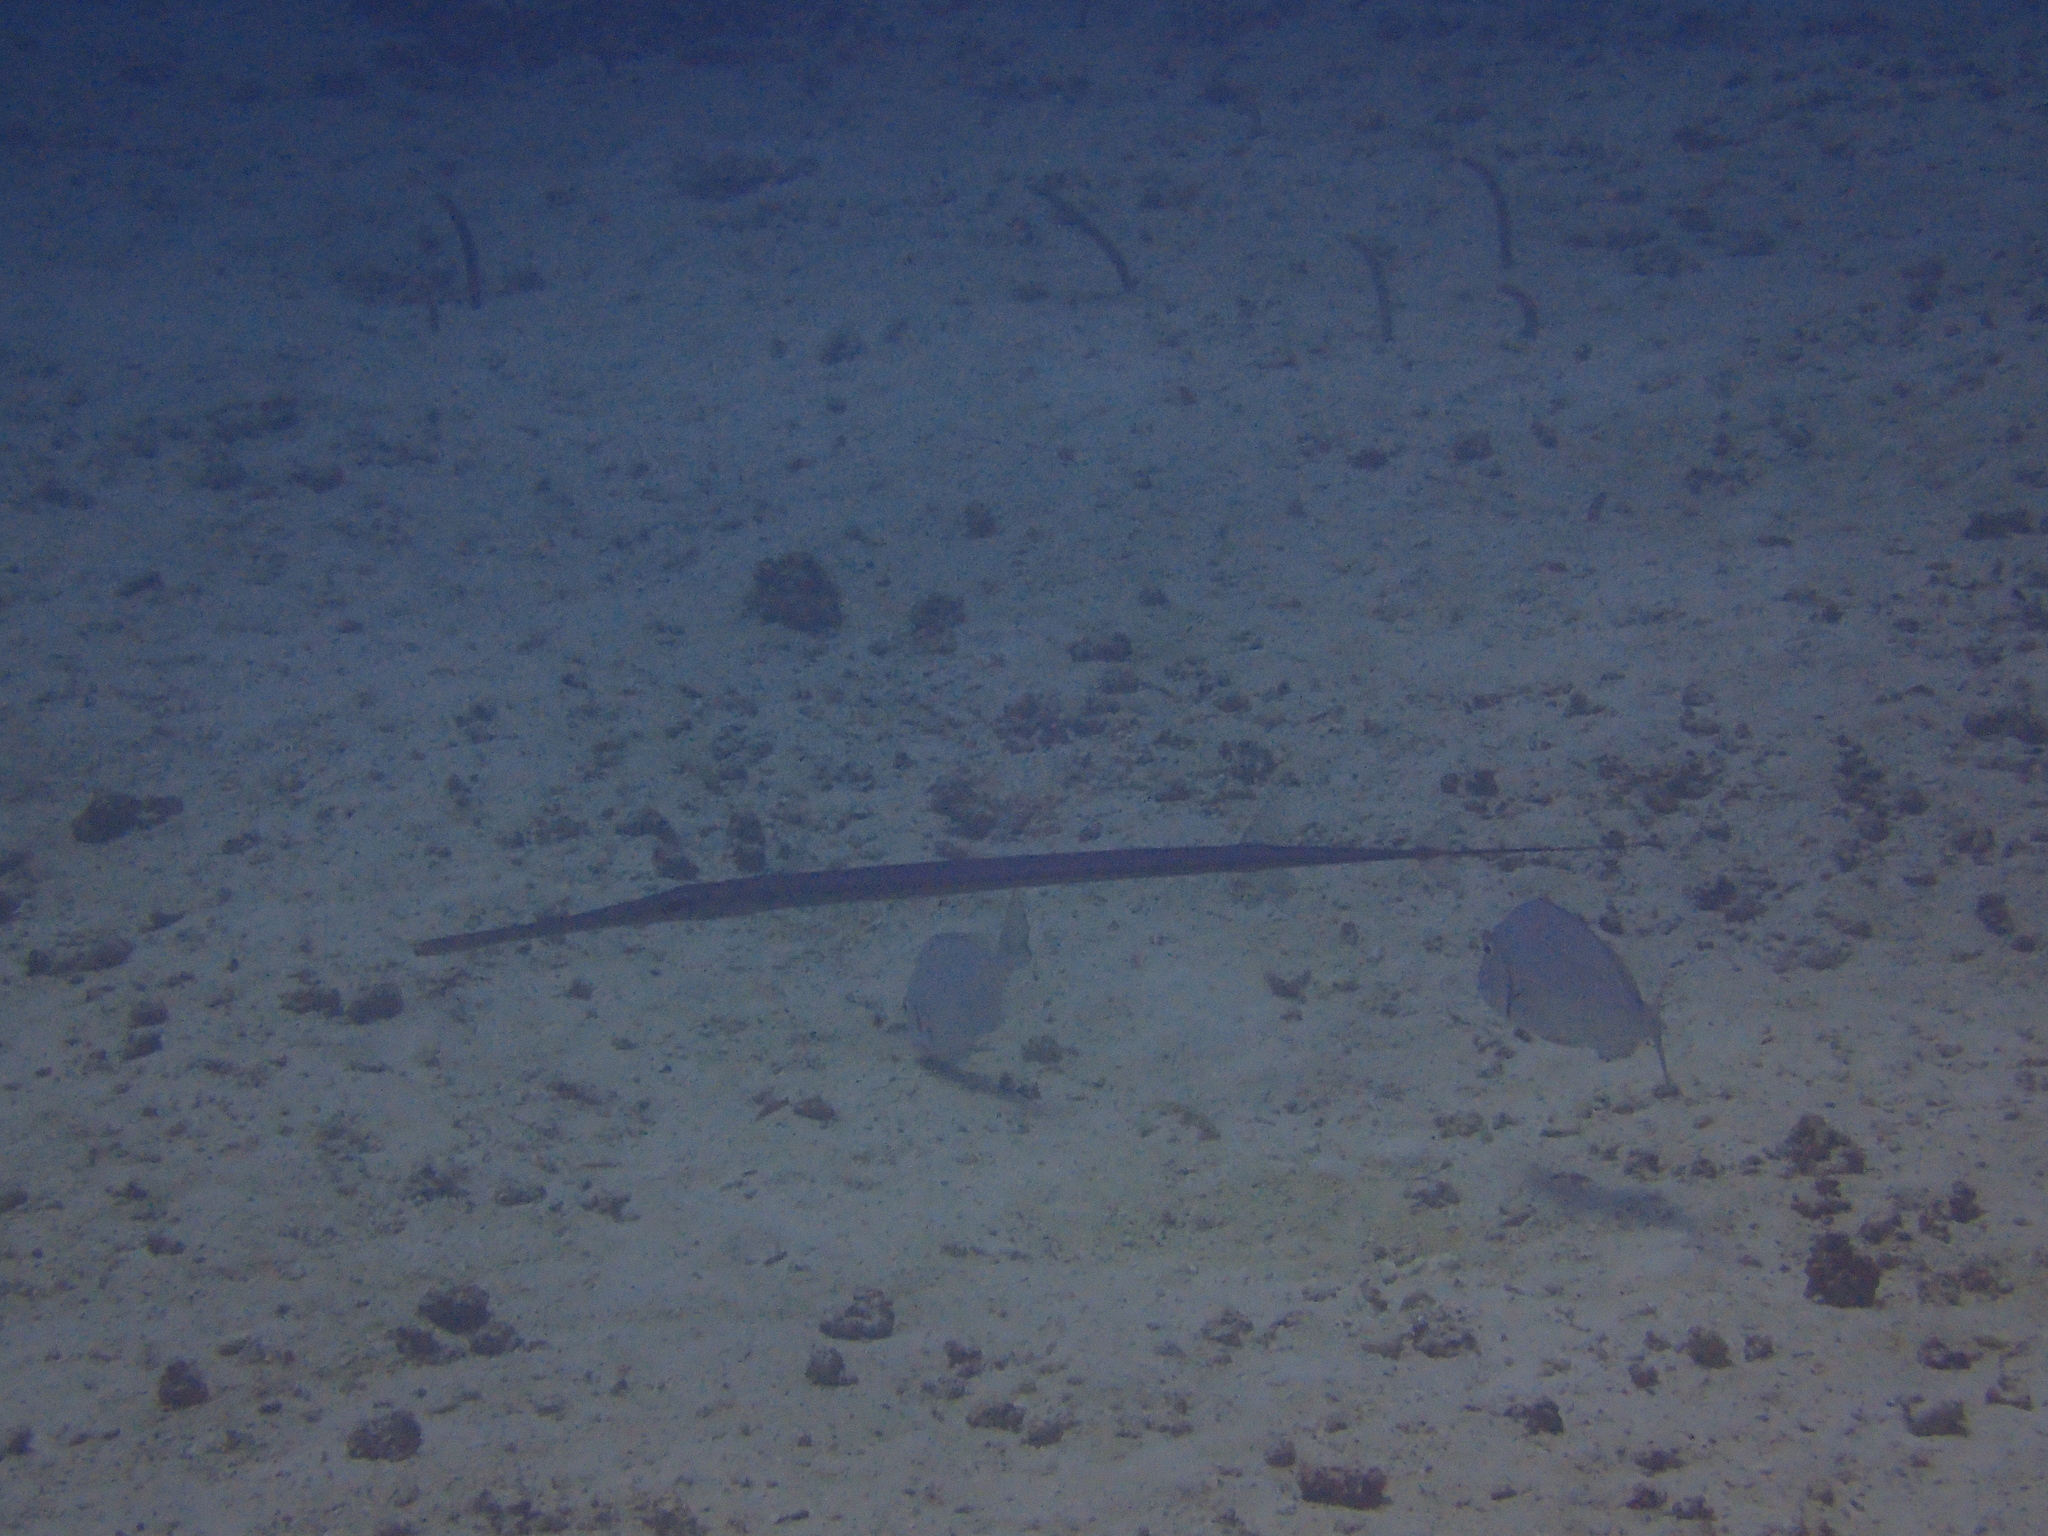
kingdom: Animalia
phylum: Chordata
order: Syngnathiformes
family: Fistulariidae
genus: Fistularia
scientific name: Fistularia commersonii
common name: Bluespotted cornetfish
